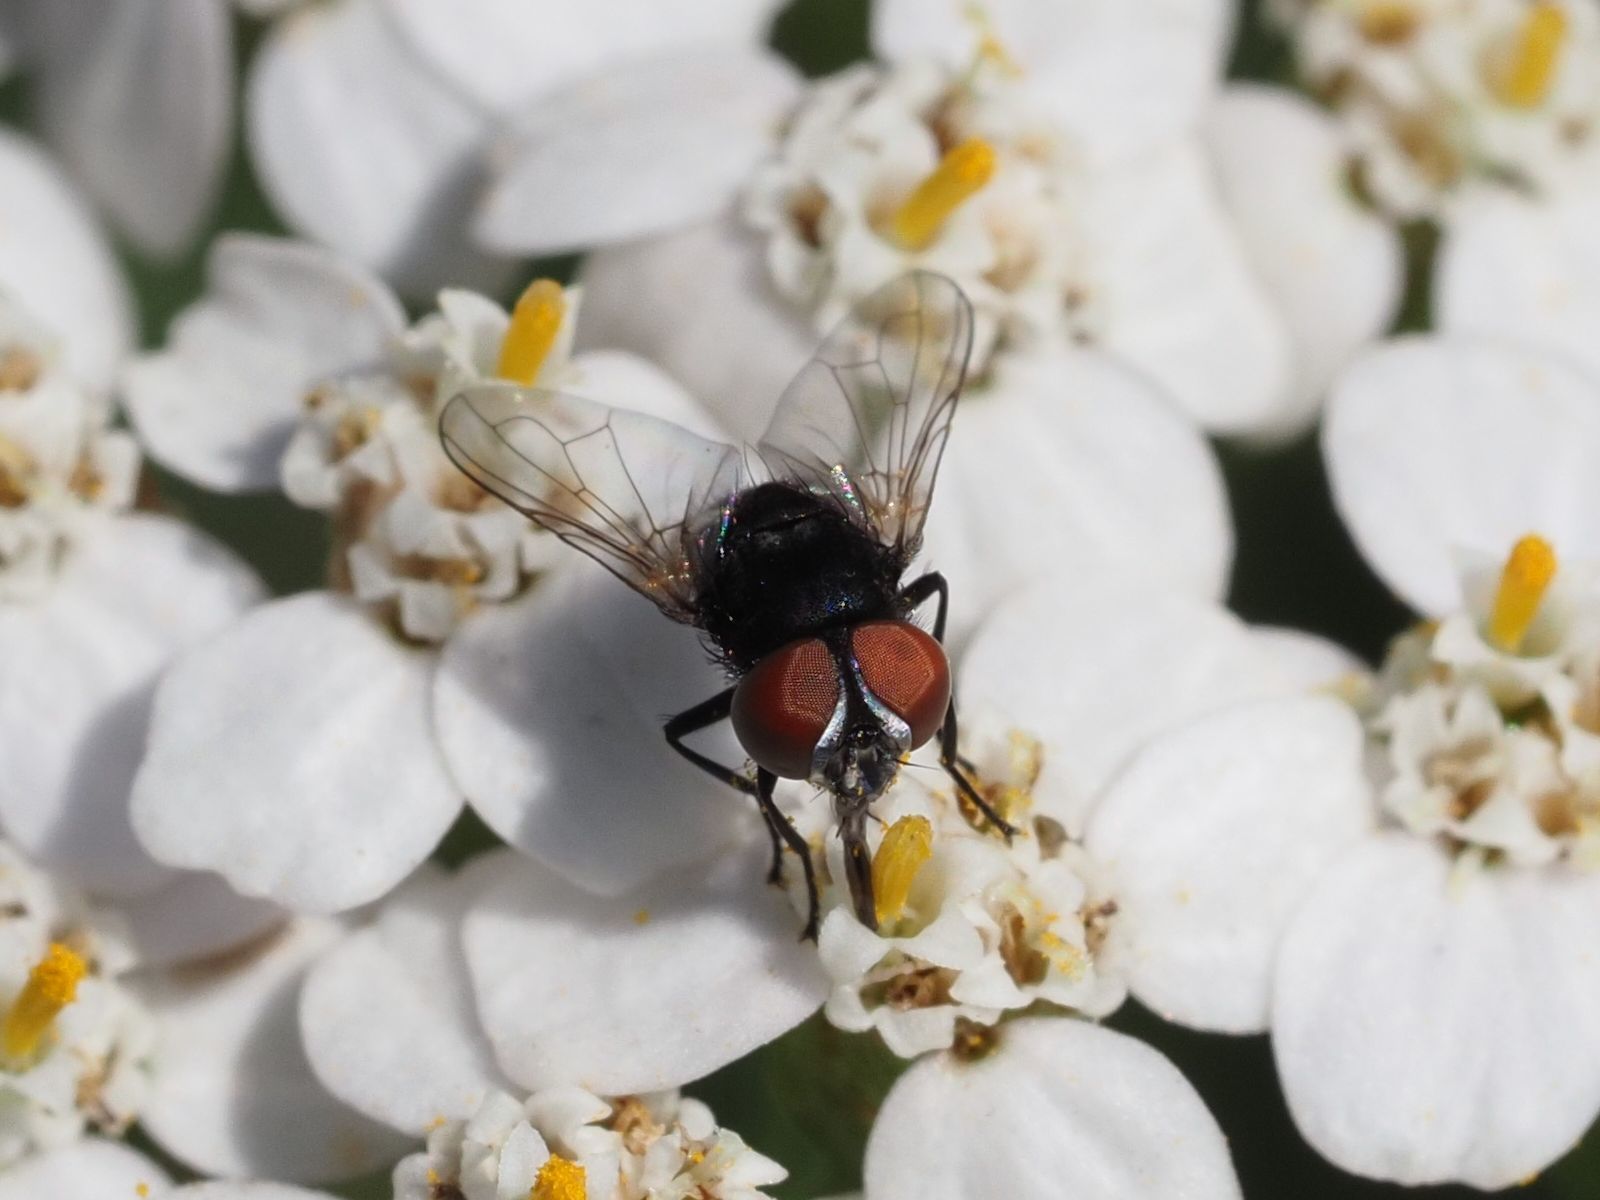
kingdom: Animalia
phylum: Arthropoda
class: Insecta
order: Diptera
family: Tachinidae
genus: Phasia
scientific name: Phasia pusilla
